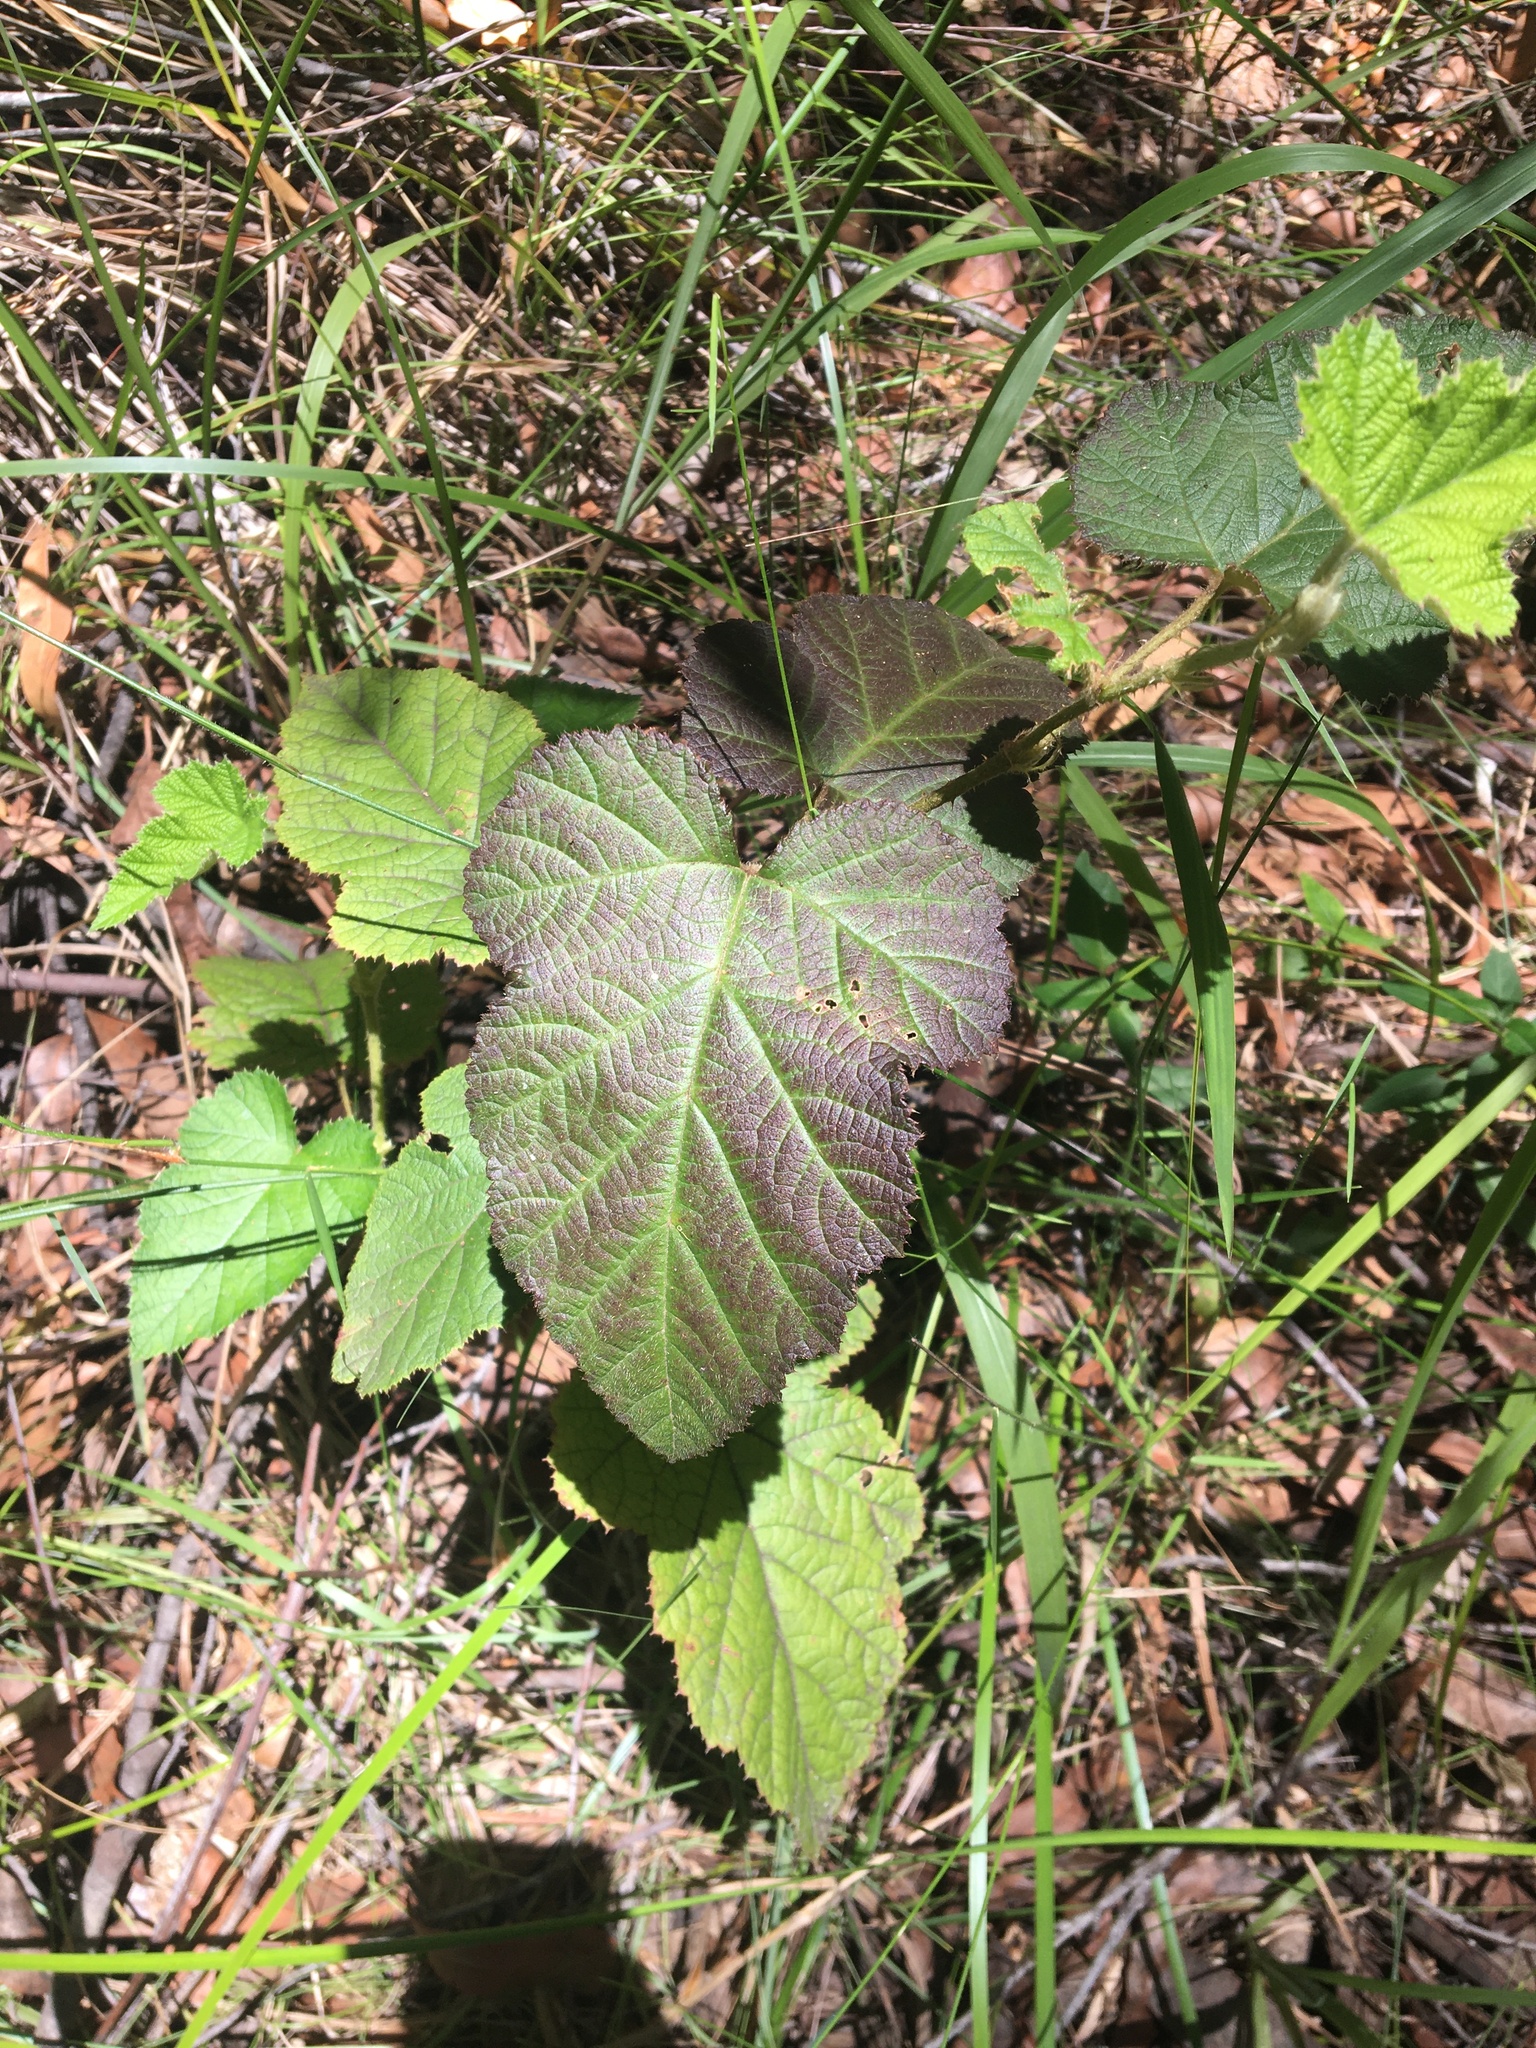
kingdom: Plantae
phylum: Tracheophyta
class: Magnoliopsida
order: Rosales
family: Rosaceae
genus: Rubus
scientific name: Rubus moluccanus
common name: Wild raspberry
